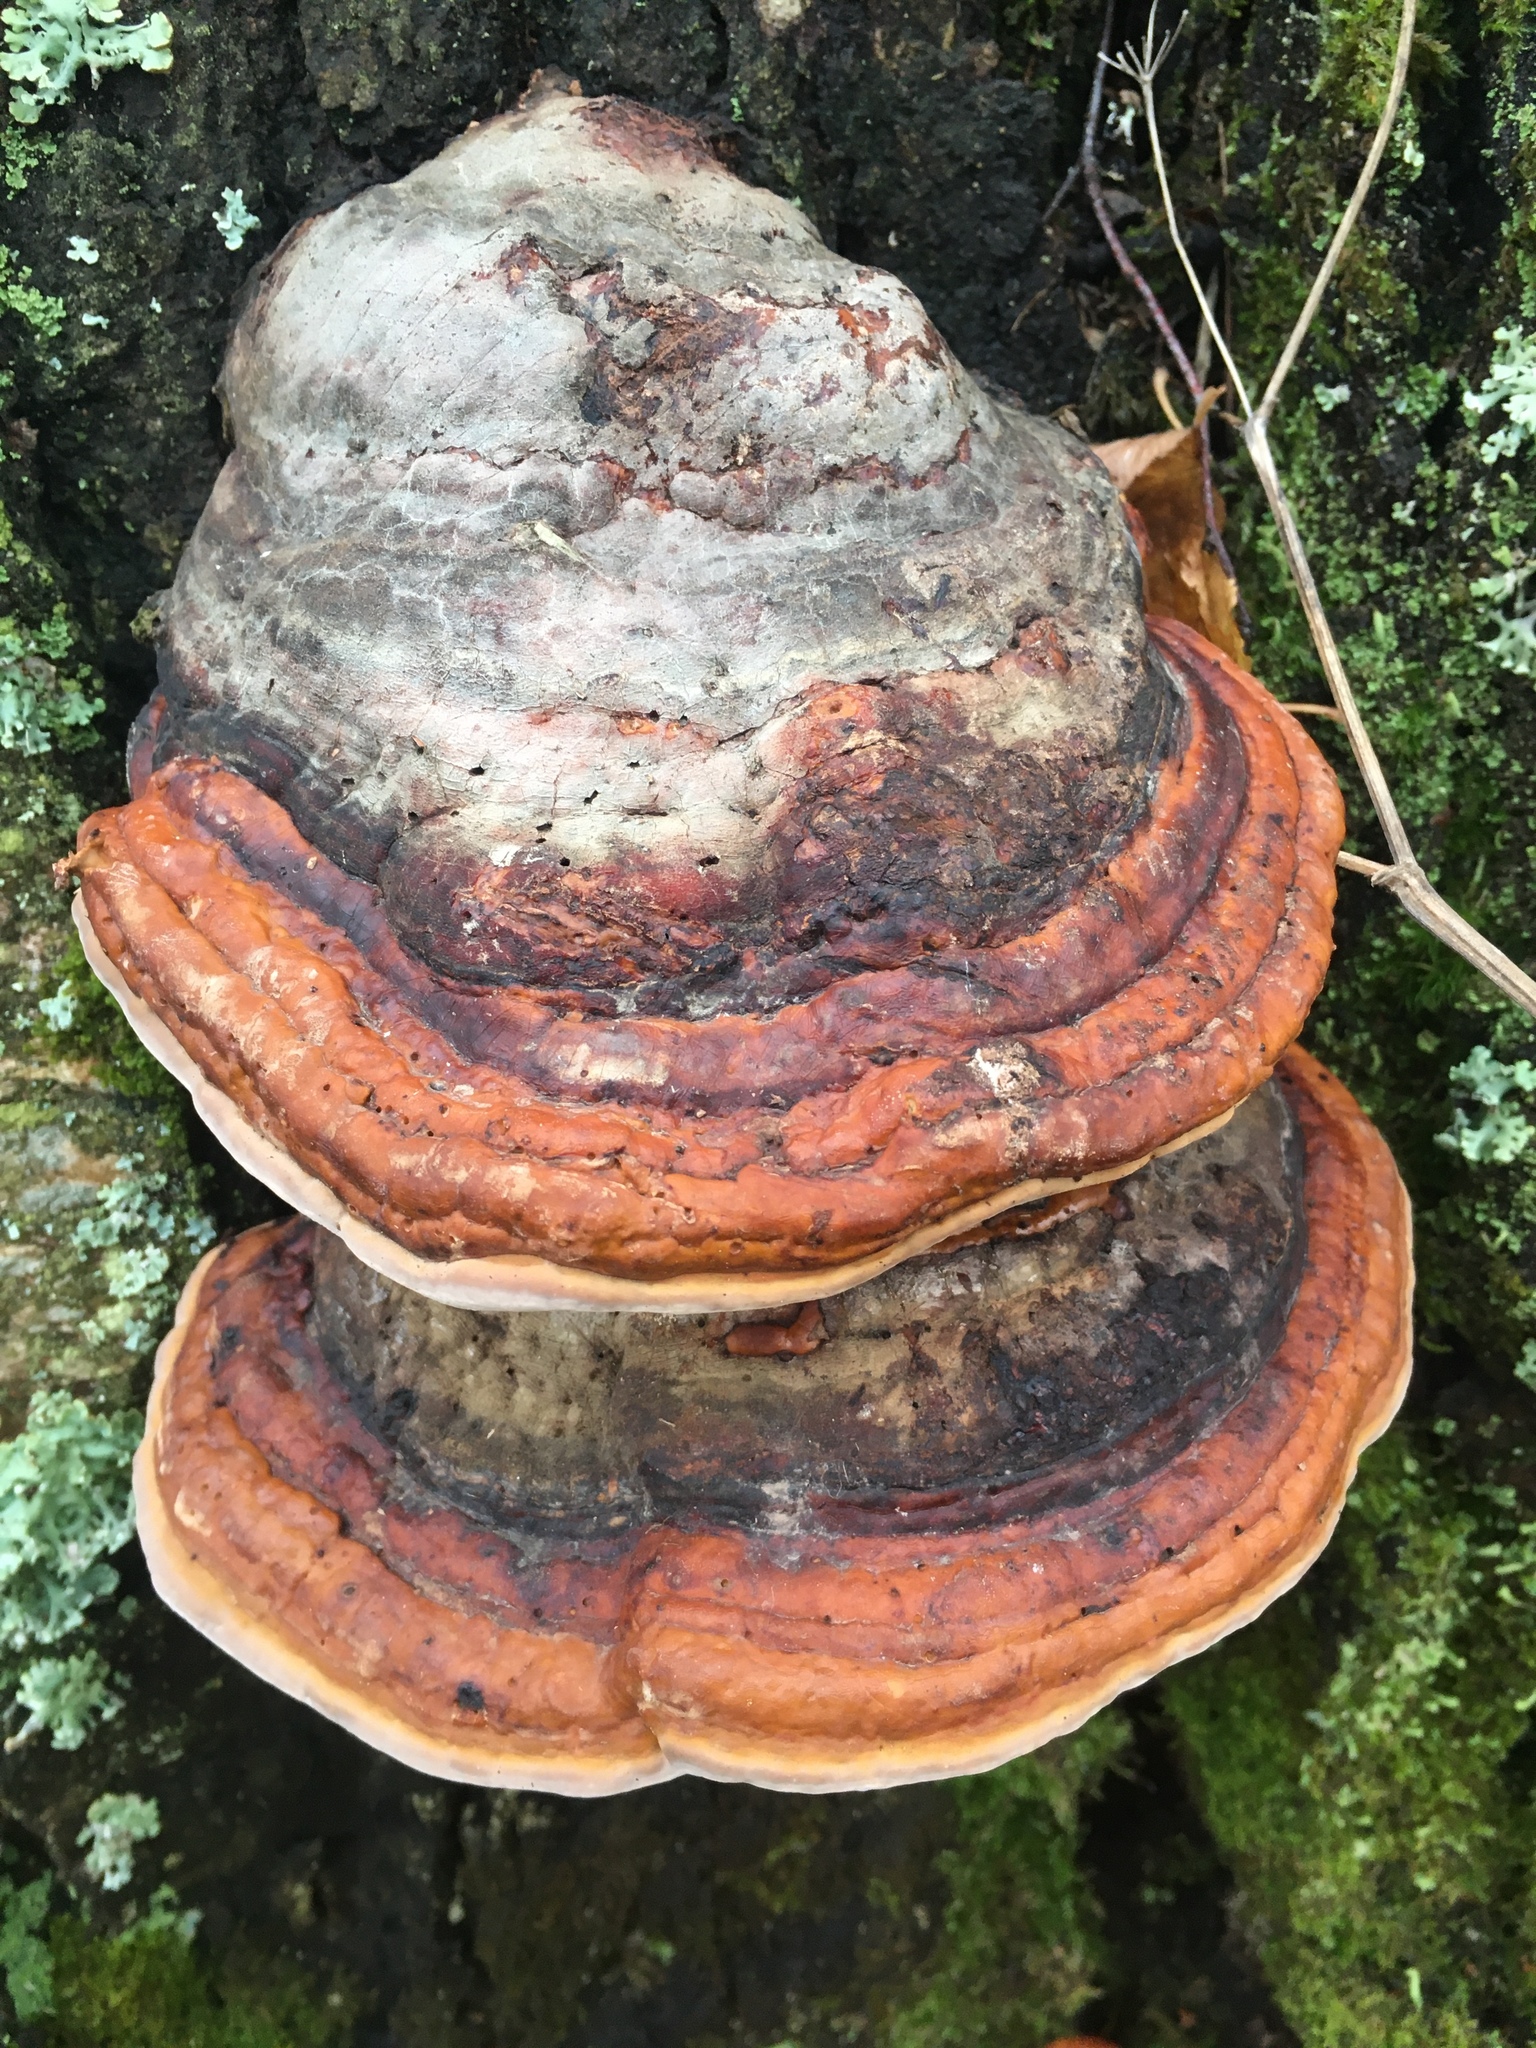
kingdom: Fungi
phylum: Basidiomycota
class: Agaricomycetes
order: Polyporales
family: Fomitopsidaceae
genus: Fomitopsis
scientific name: Fomitopsis pinicola
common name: Red-belted bracket
